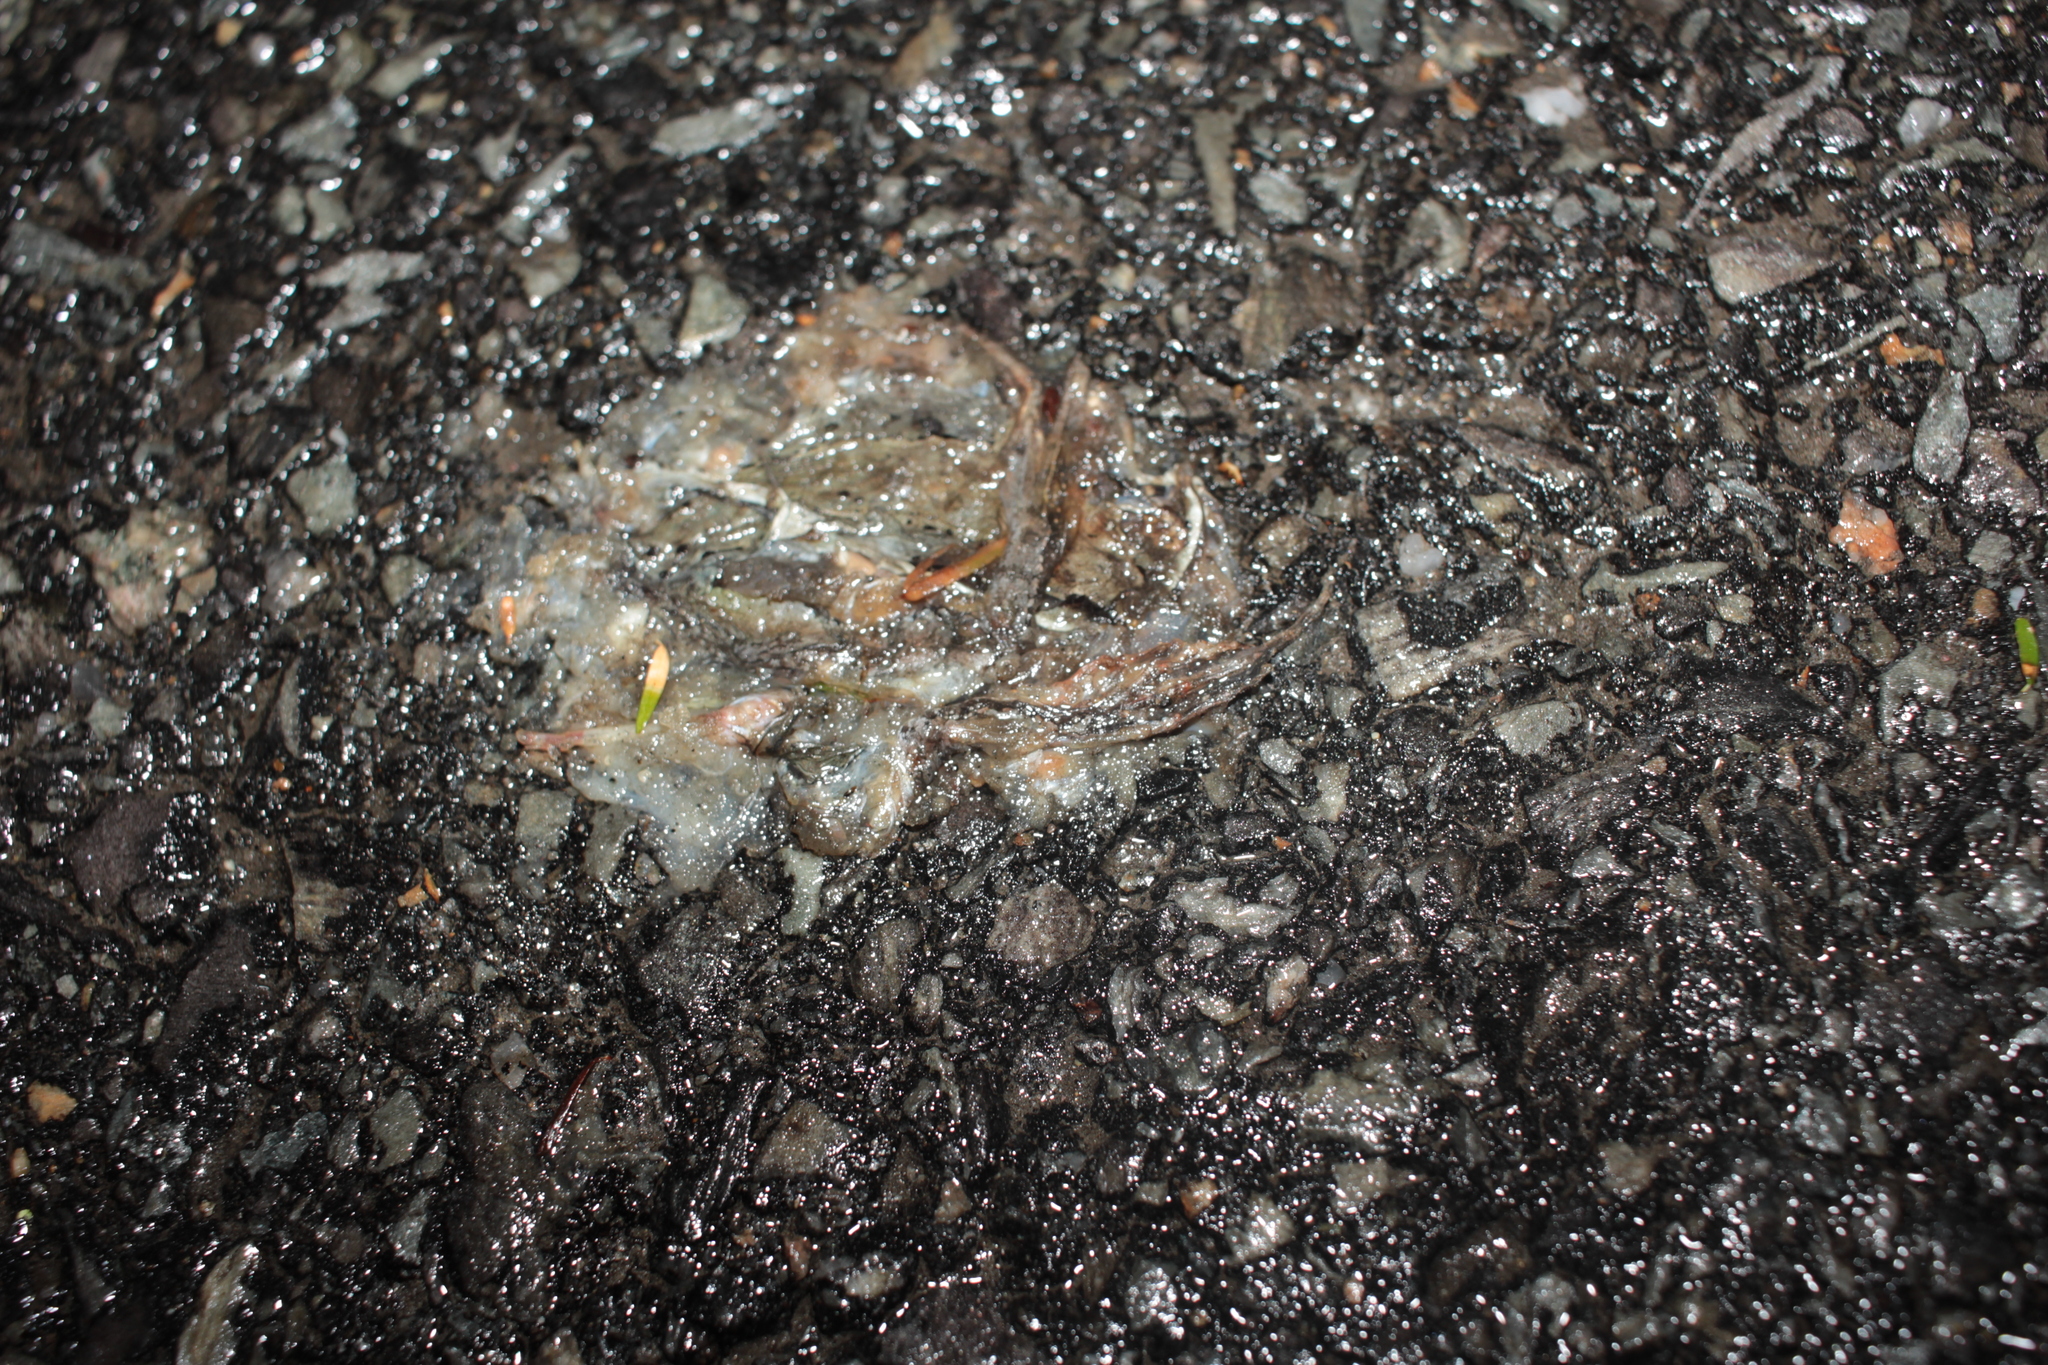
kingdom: Animalia
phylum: Chordata
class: Amphibia
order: Anura
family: Ranidae
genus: Lithobates
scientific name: Lithobates sylvaticus
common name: Wood frog
